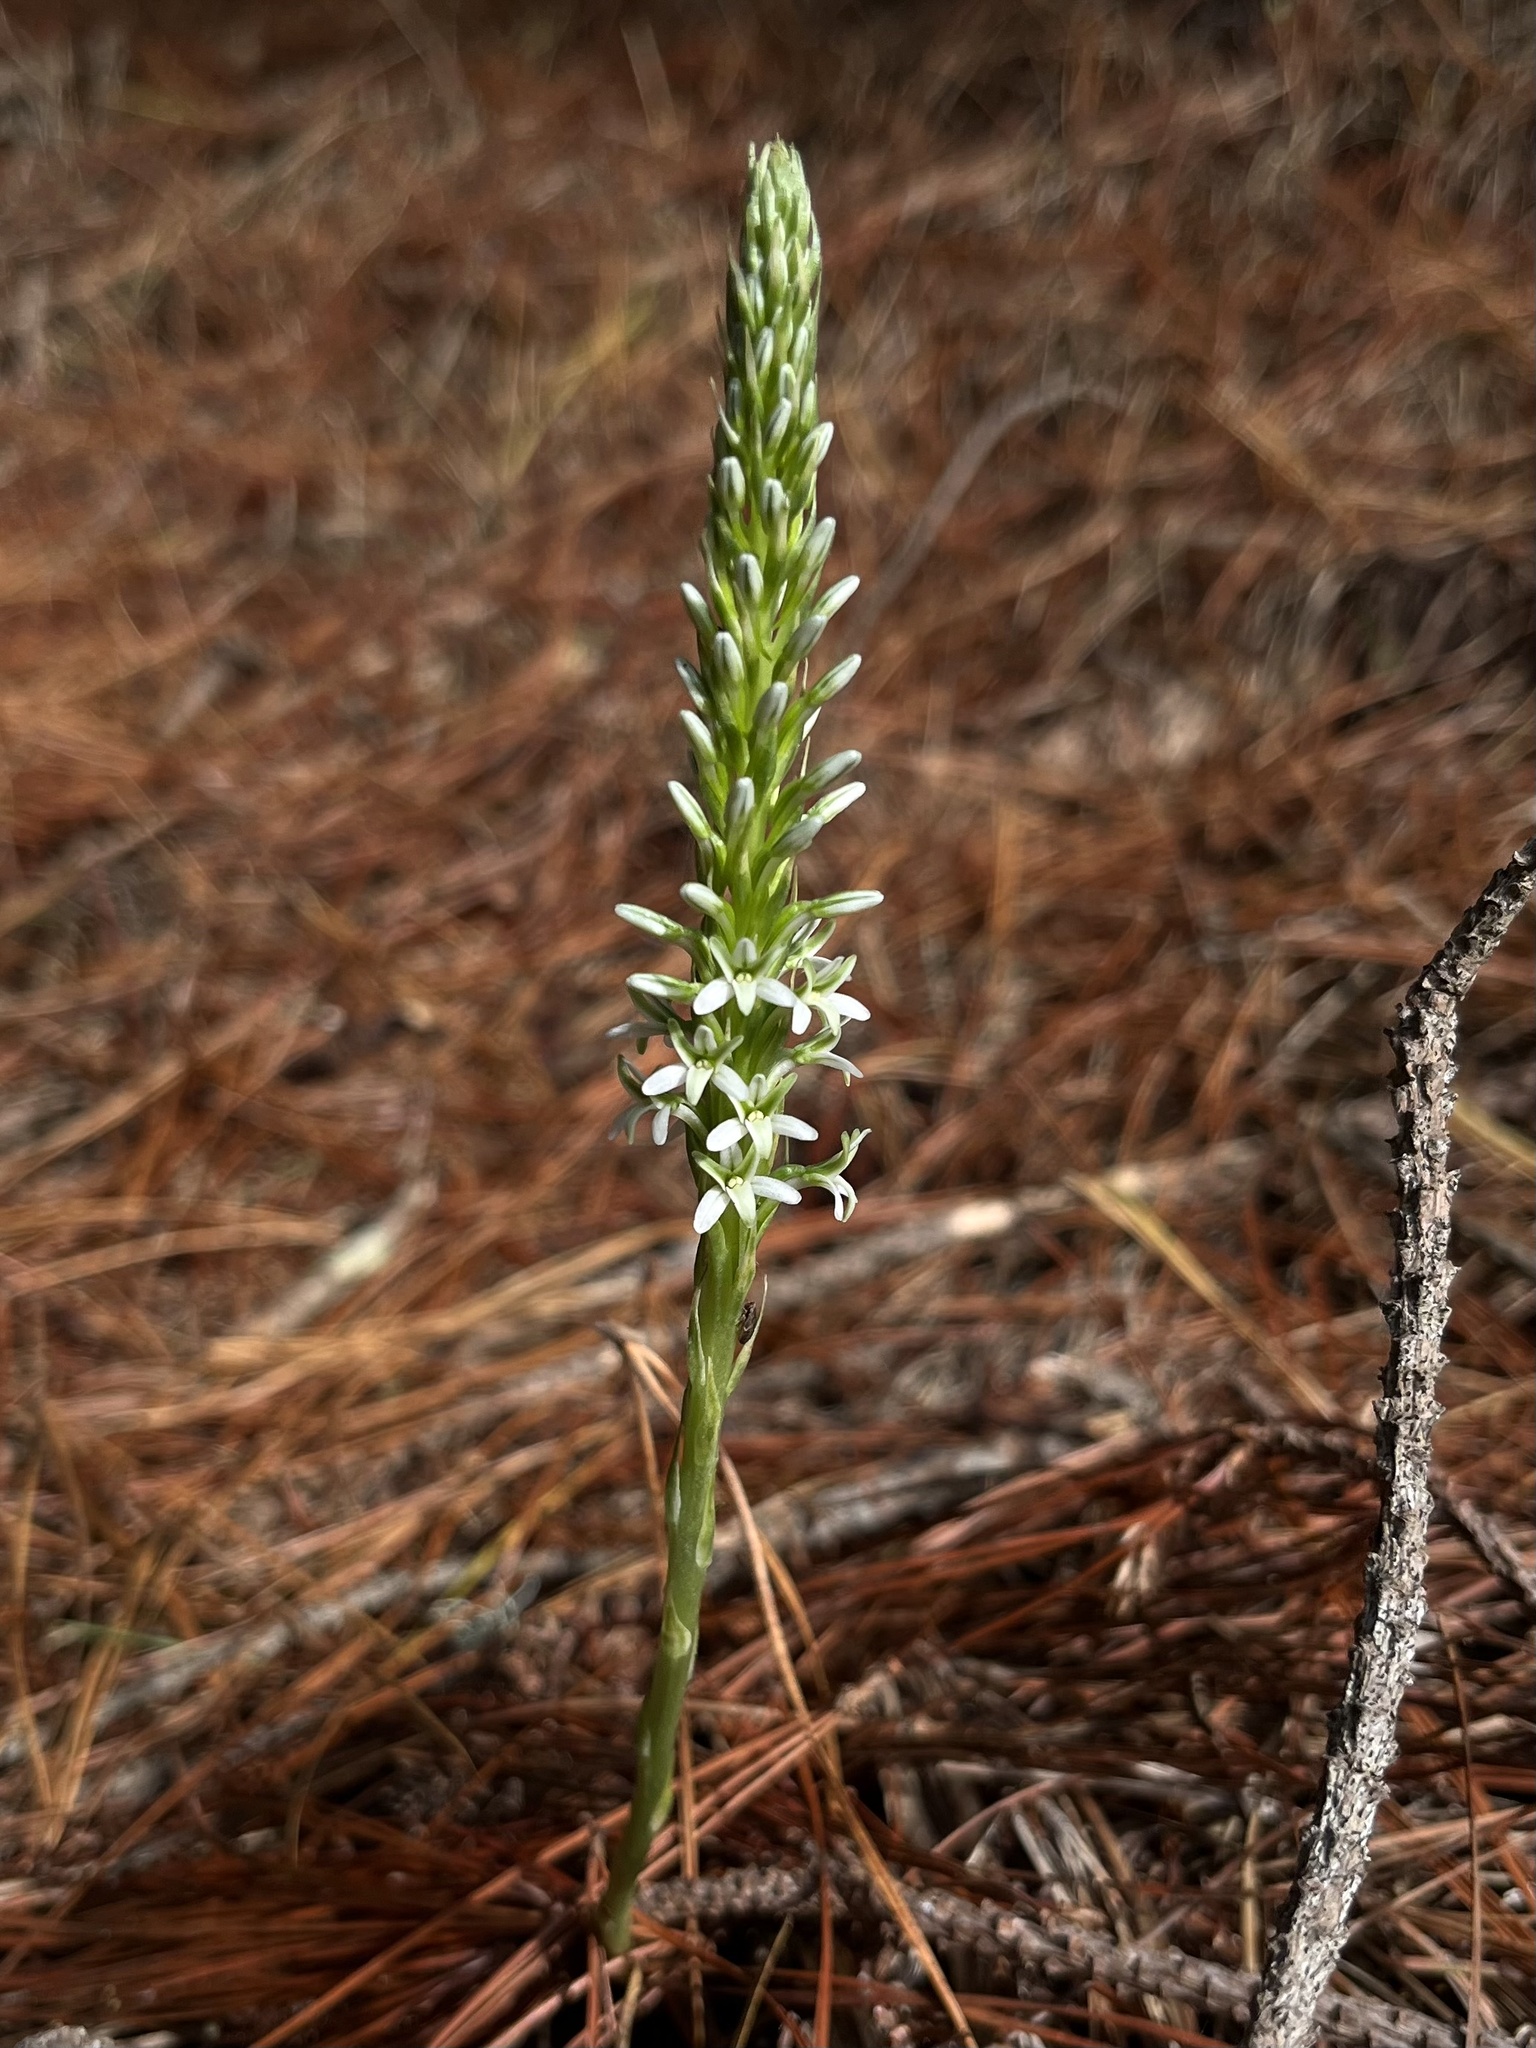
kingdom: Plantae
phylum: Tracheophyta
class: Liliopsida
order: Asparagales
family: Orchidaceae
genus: Platanthera
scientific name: Platanthera elegans
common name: Coast piperia
